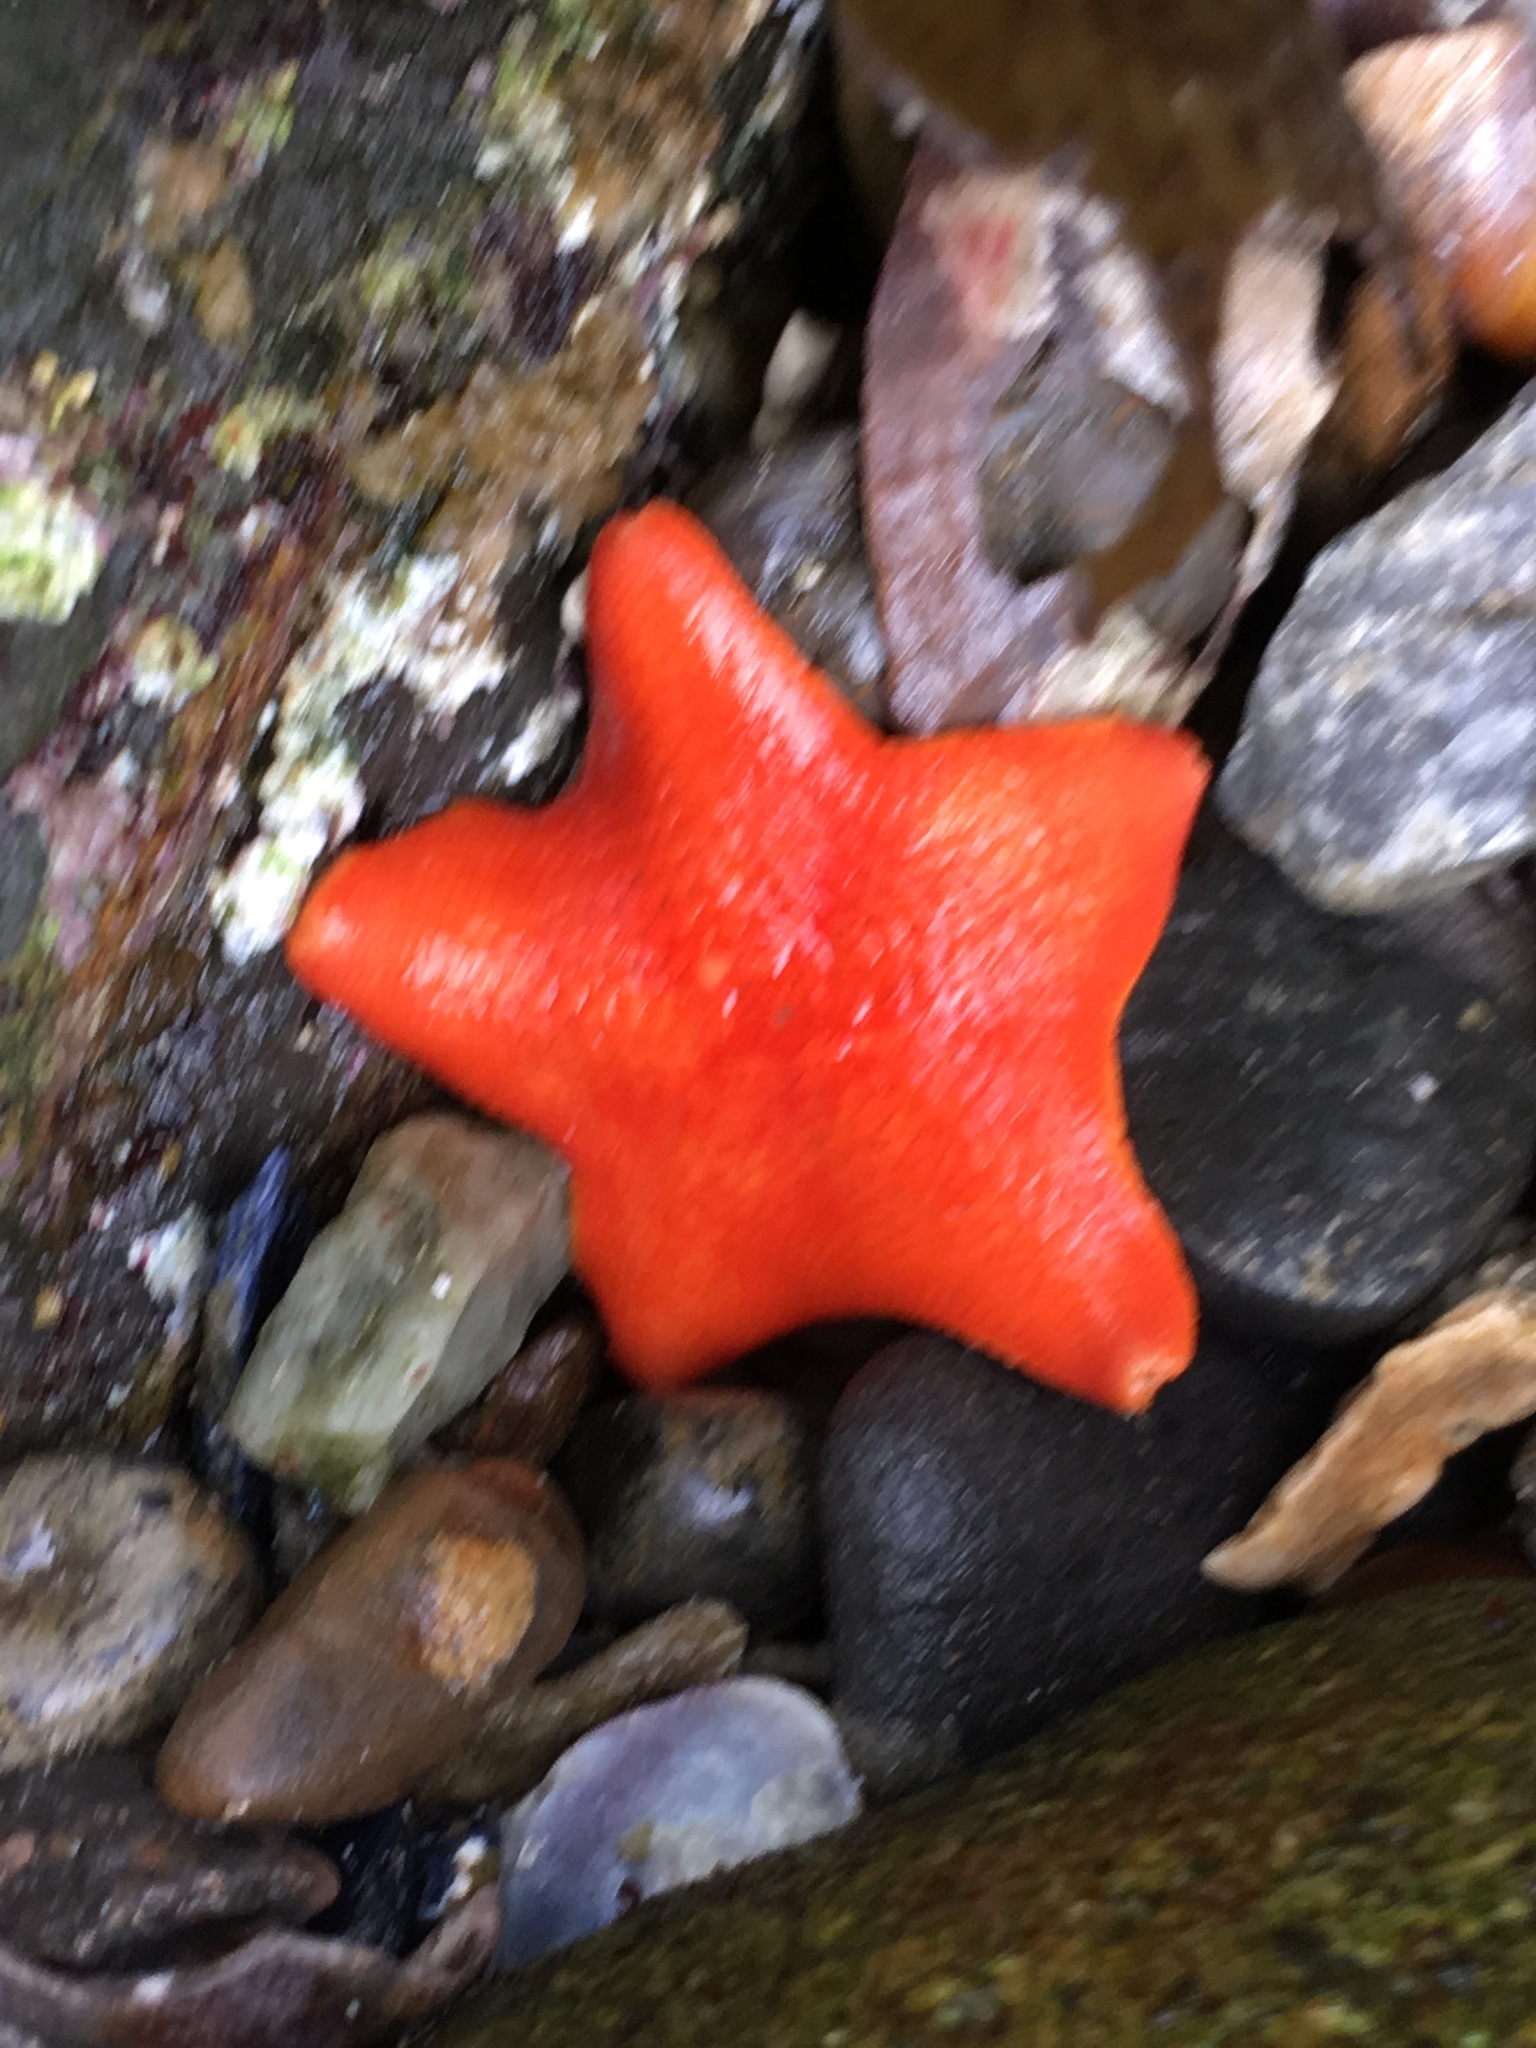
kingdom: Animalia
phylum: Echinodermata
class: Asteroidea
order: Valvatida
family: Asterinidae
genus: Patiria
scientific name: Patiria miniata
